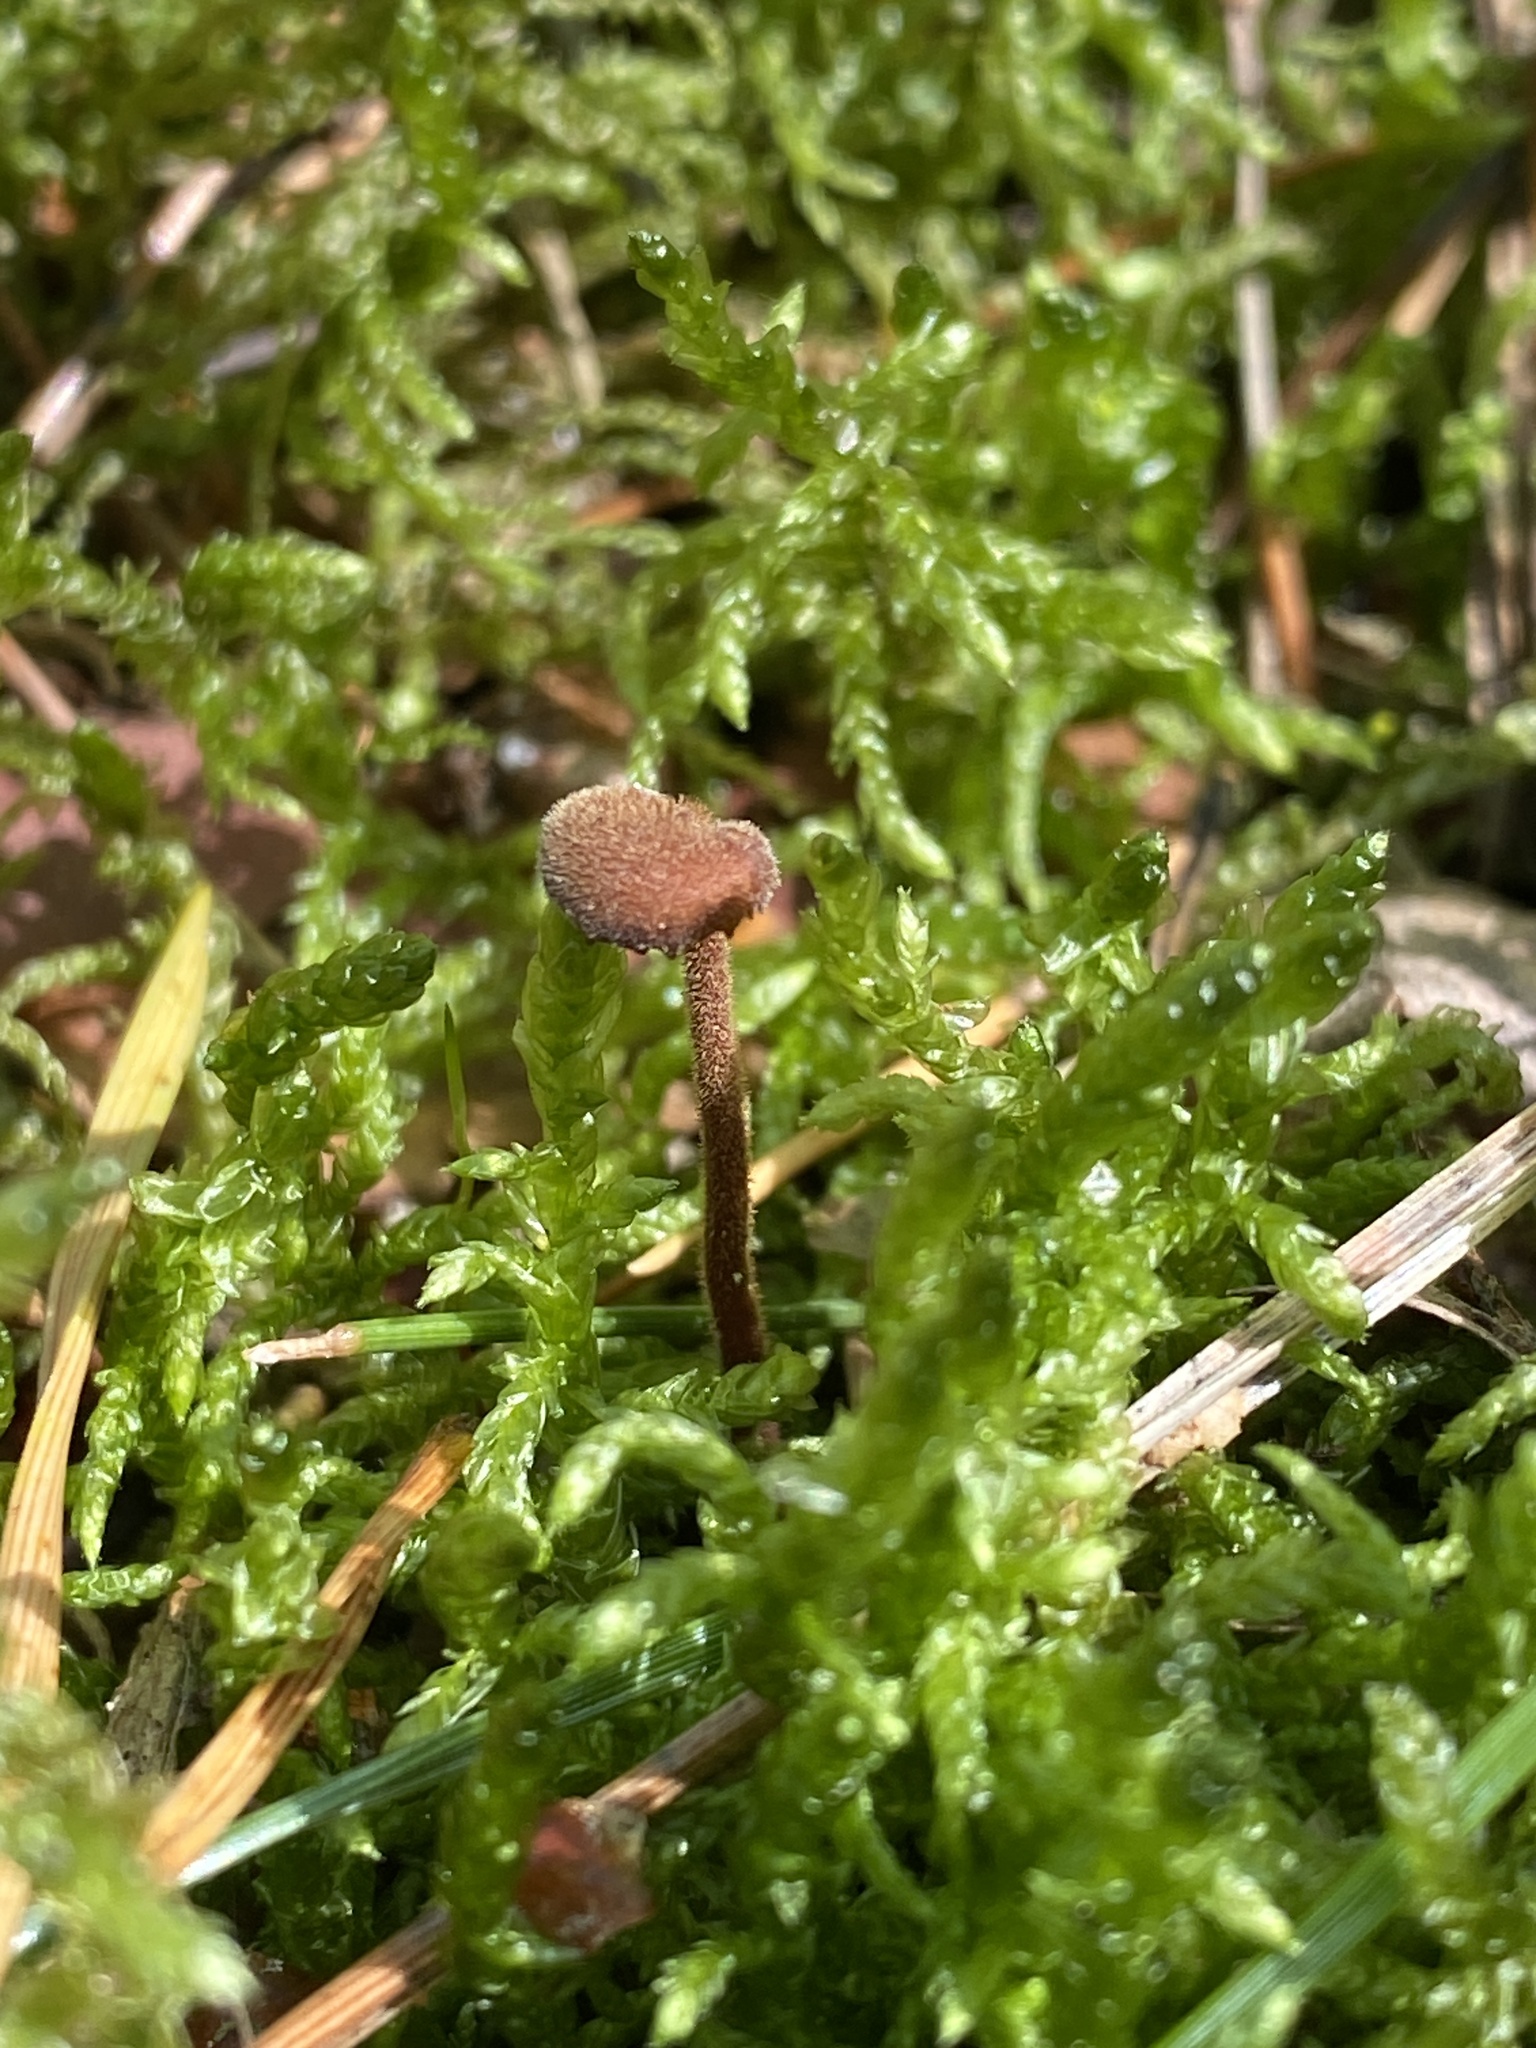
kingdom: Fungi
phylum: Basidiomycota
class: Agaricomycetes
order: Russulales
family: Auriscalpiaceae
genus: Auriscalpium
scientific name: Auriscalpium vulgare
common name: Earpick fungus
